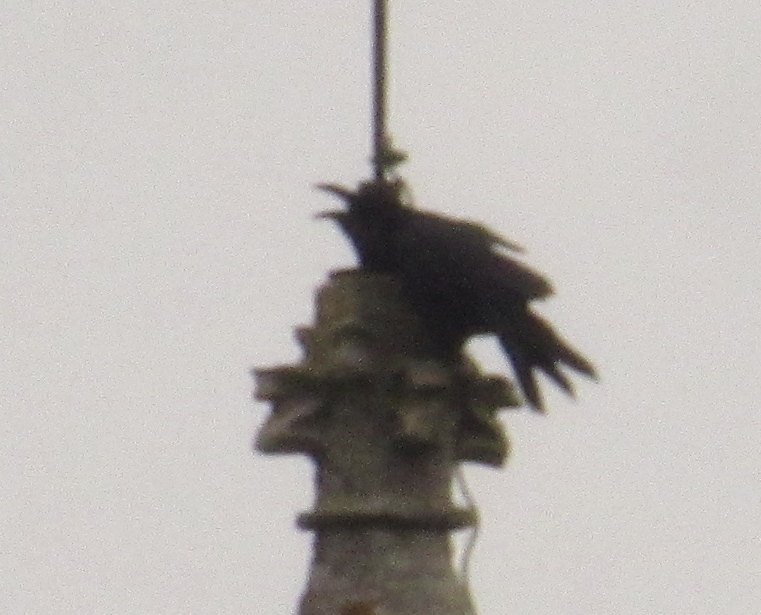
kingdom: Animalia
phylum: Chordata
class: Aves
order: Passeriformes
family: Corvidae
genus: Corvus
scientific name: Corvus corax
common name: Common raven
